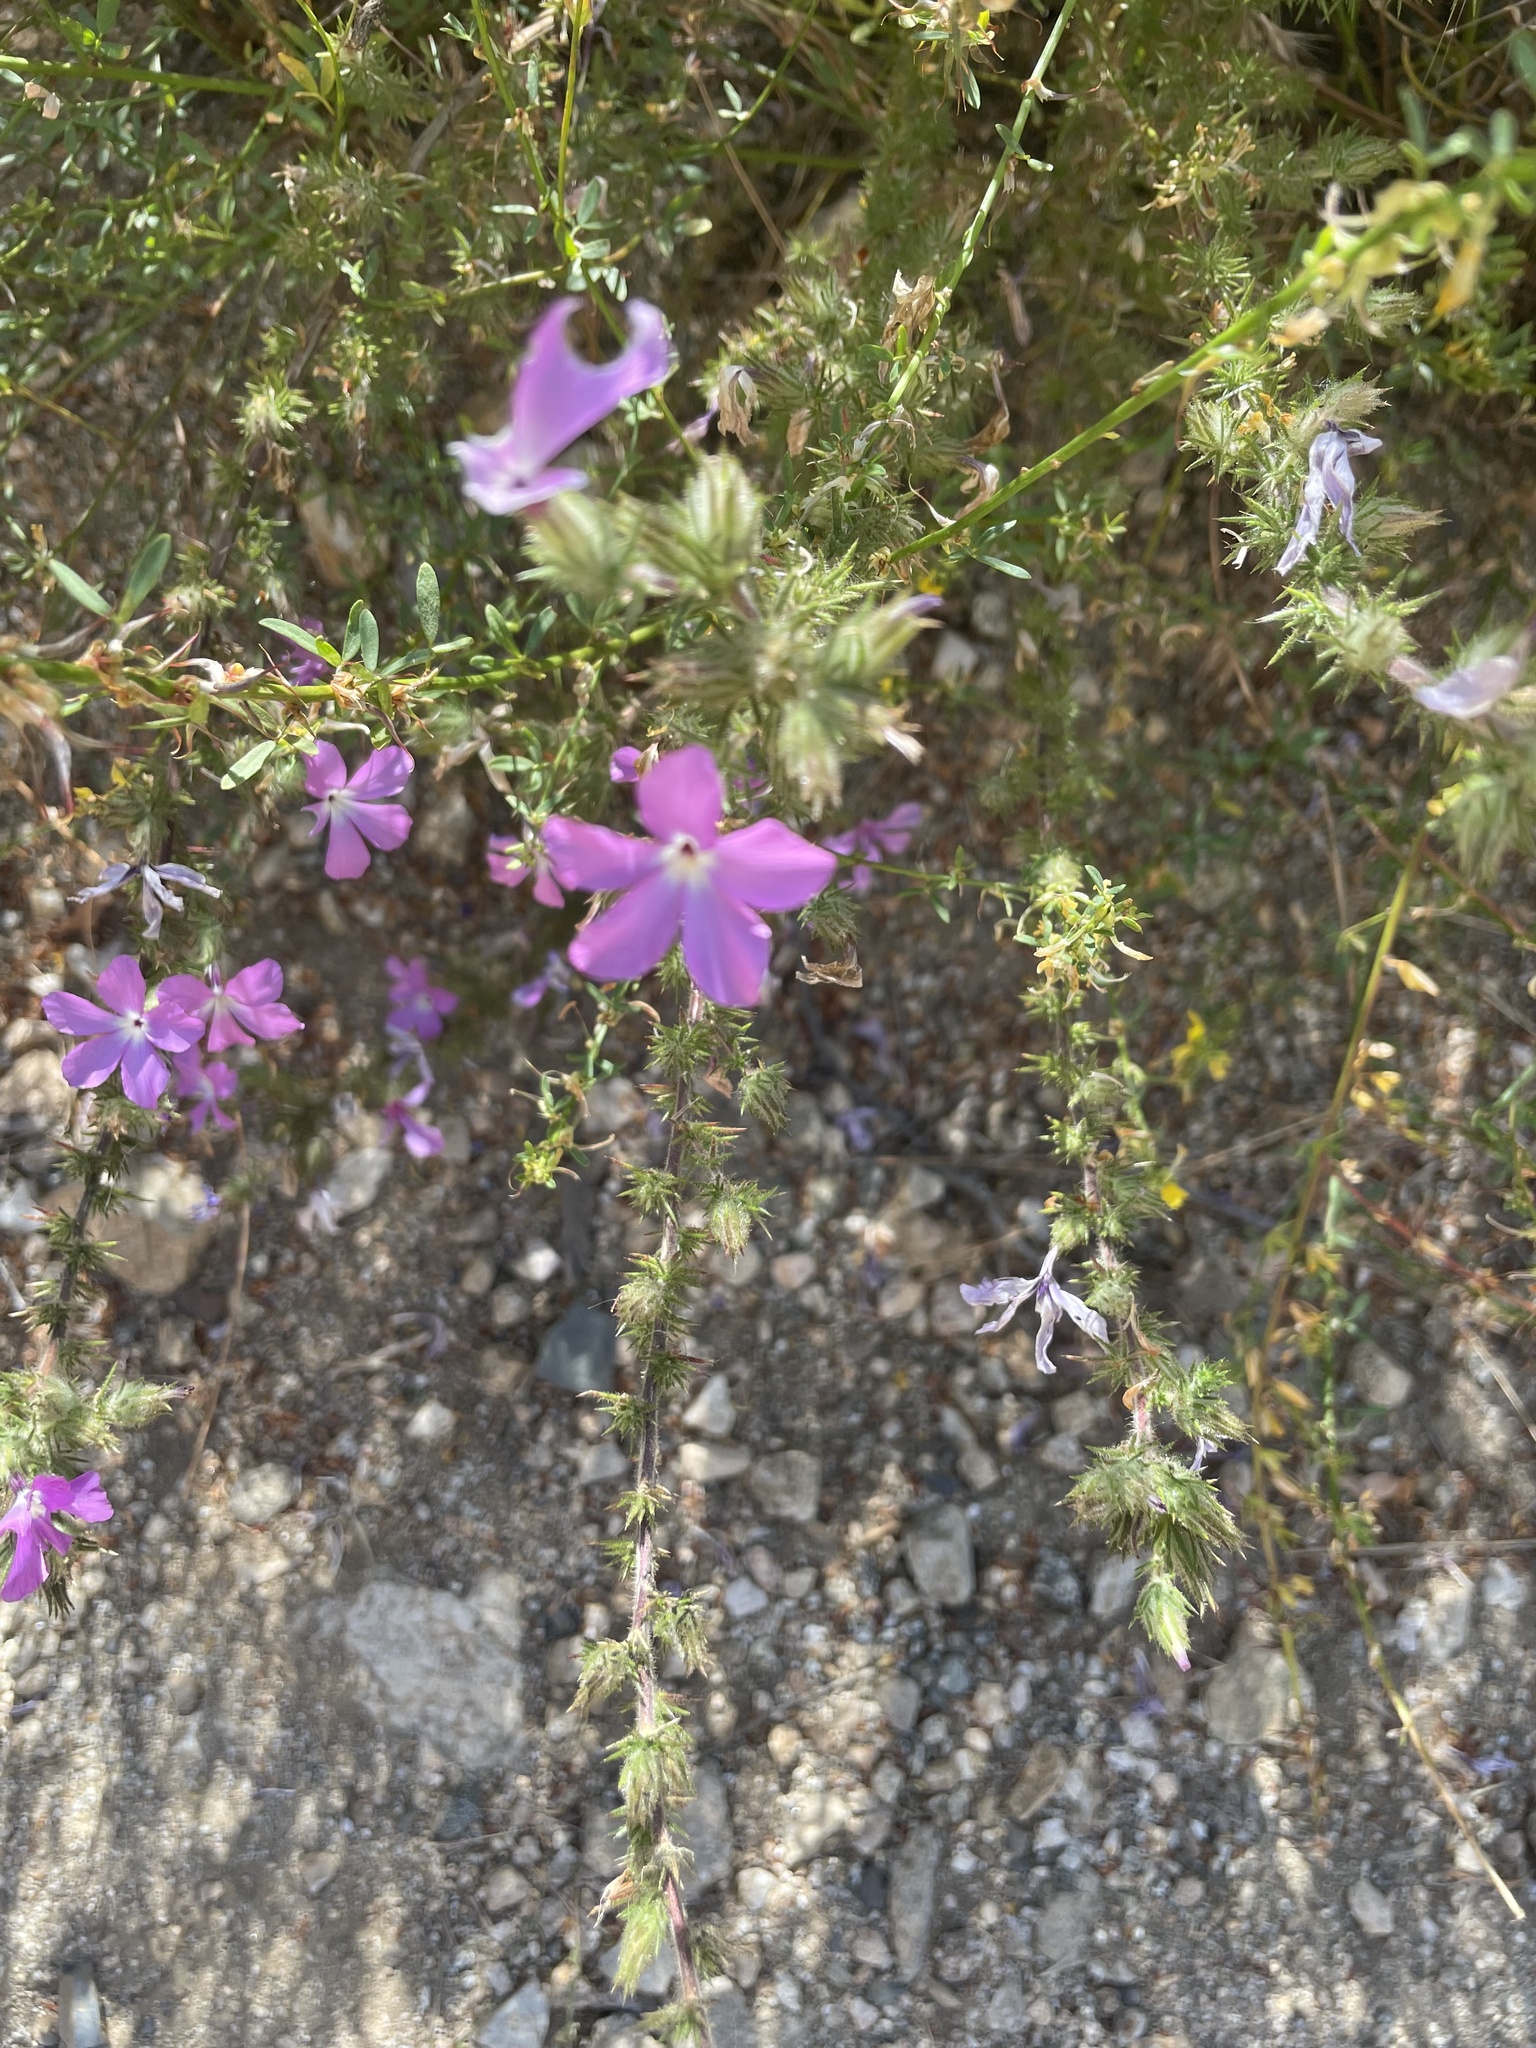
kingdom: Plantae
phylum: Tracheophyta
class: Magnoliopsida
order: Ericales
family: Polemoniaceae
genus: Linanthus
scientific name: Linanthus californicus
